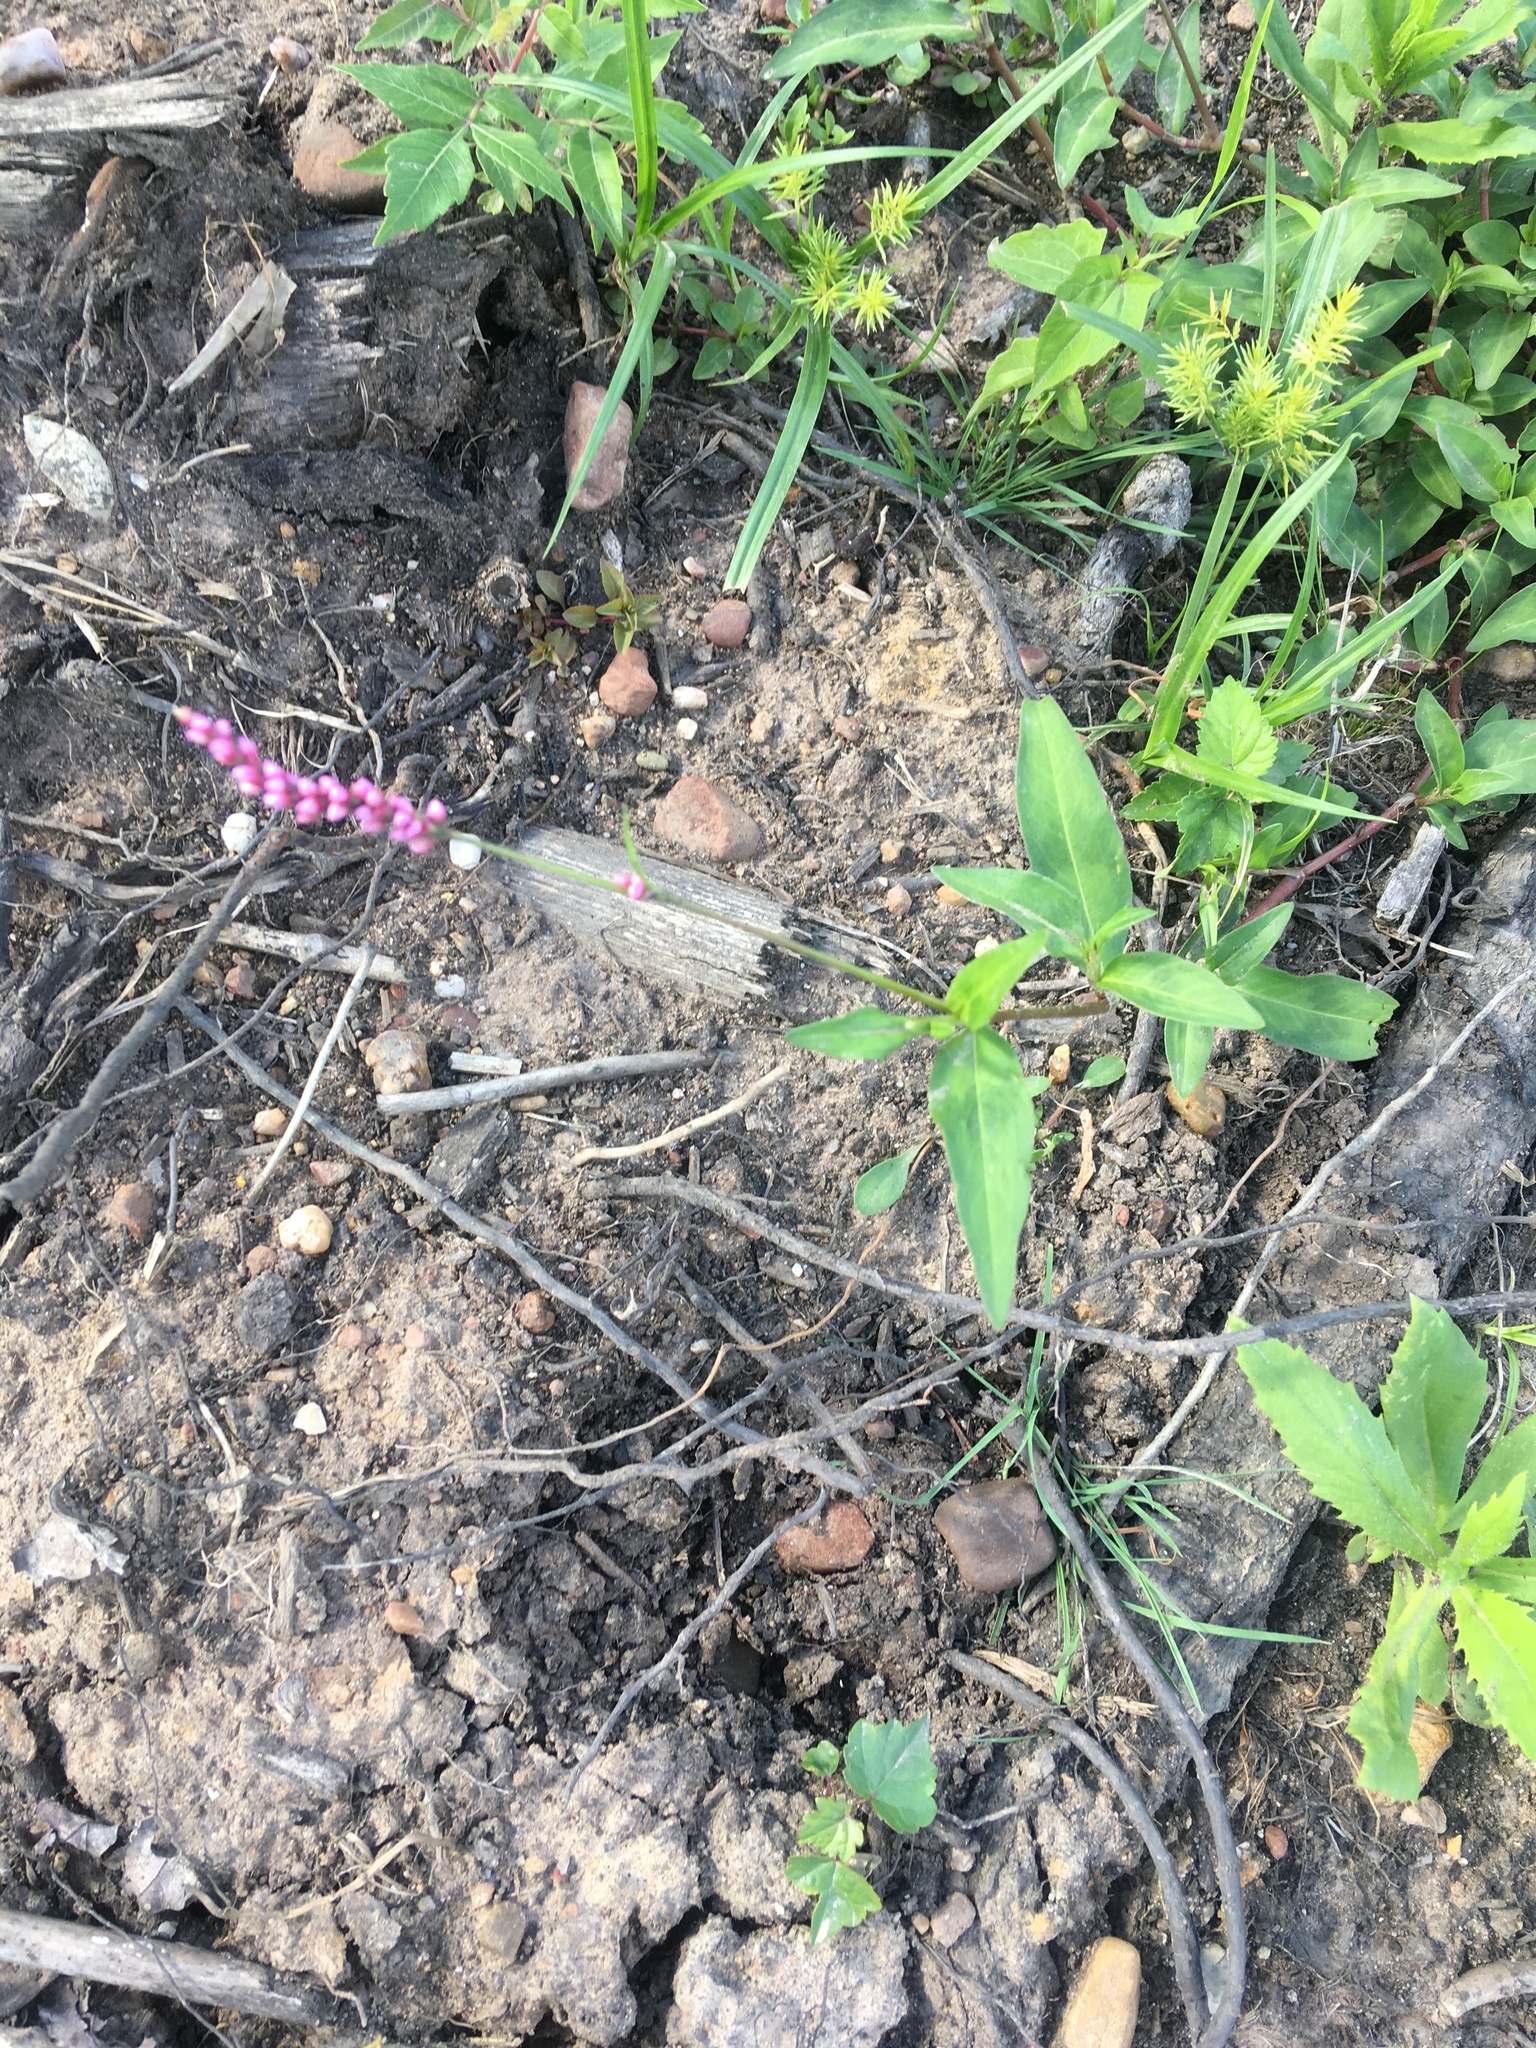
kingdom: Plantae
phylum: Tracheophyta
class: Magnoliopsida
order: Caryophyllales
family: Polygonaceae
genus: Persicaria
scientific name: Persicaria longiseta
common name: Bristly lady's-thumb
